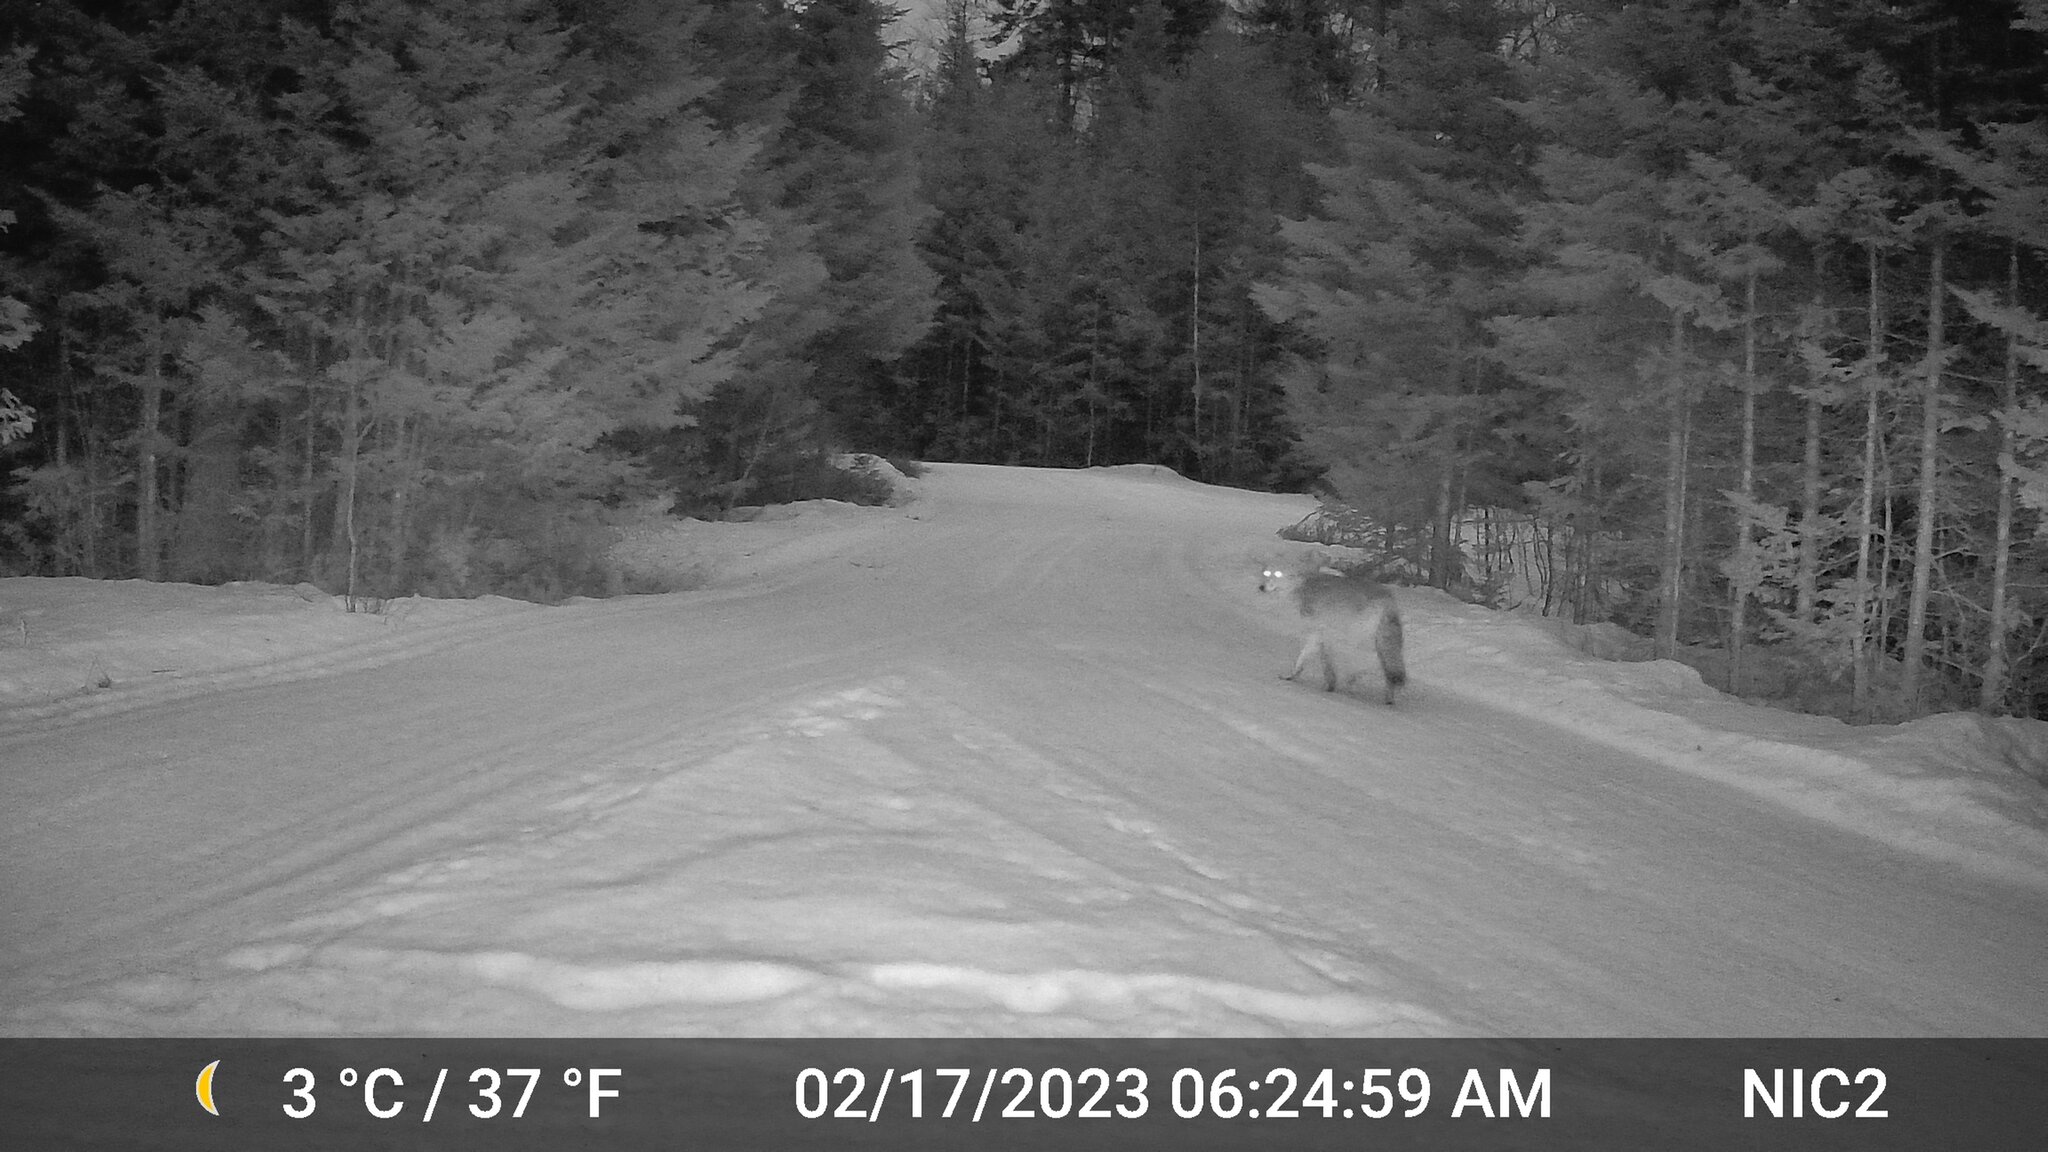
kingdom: Animalia
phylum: Chordata
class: Mammalia
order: Carnivora
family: Canidae
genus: Canis
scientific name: Canis latrans
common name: Coyote
